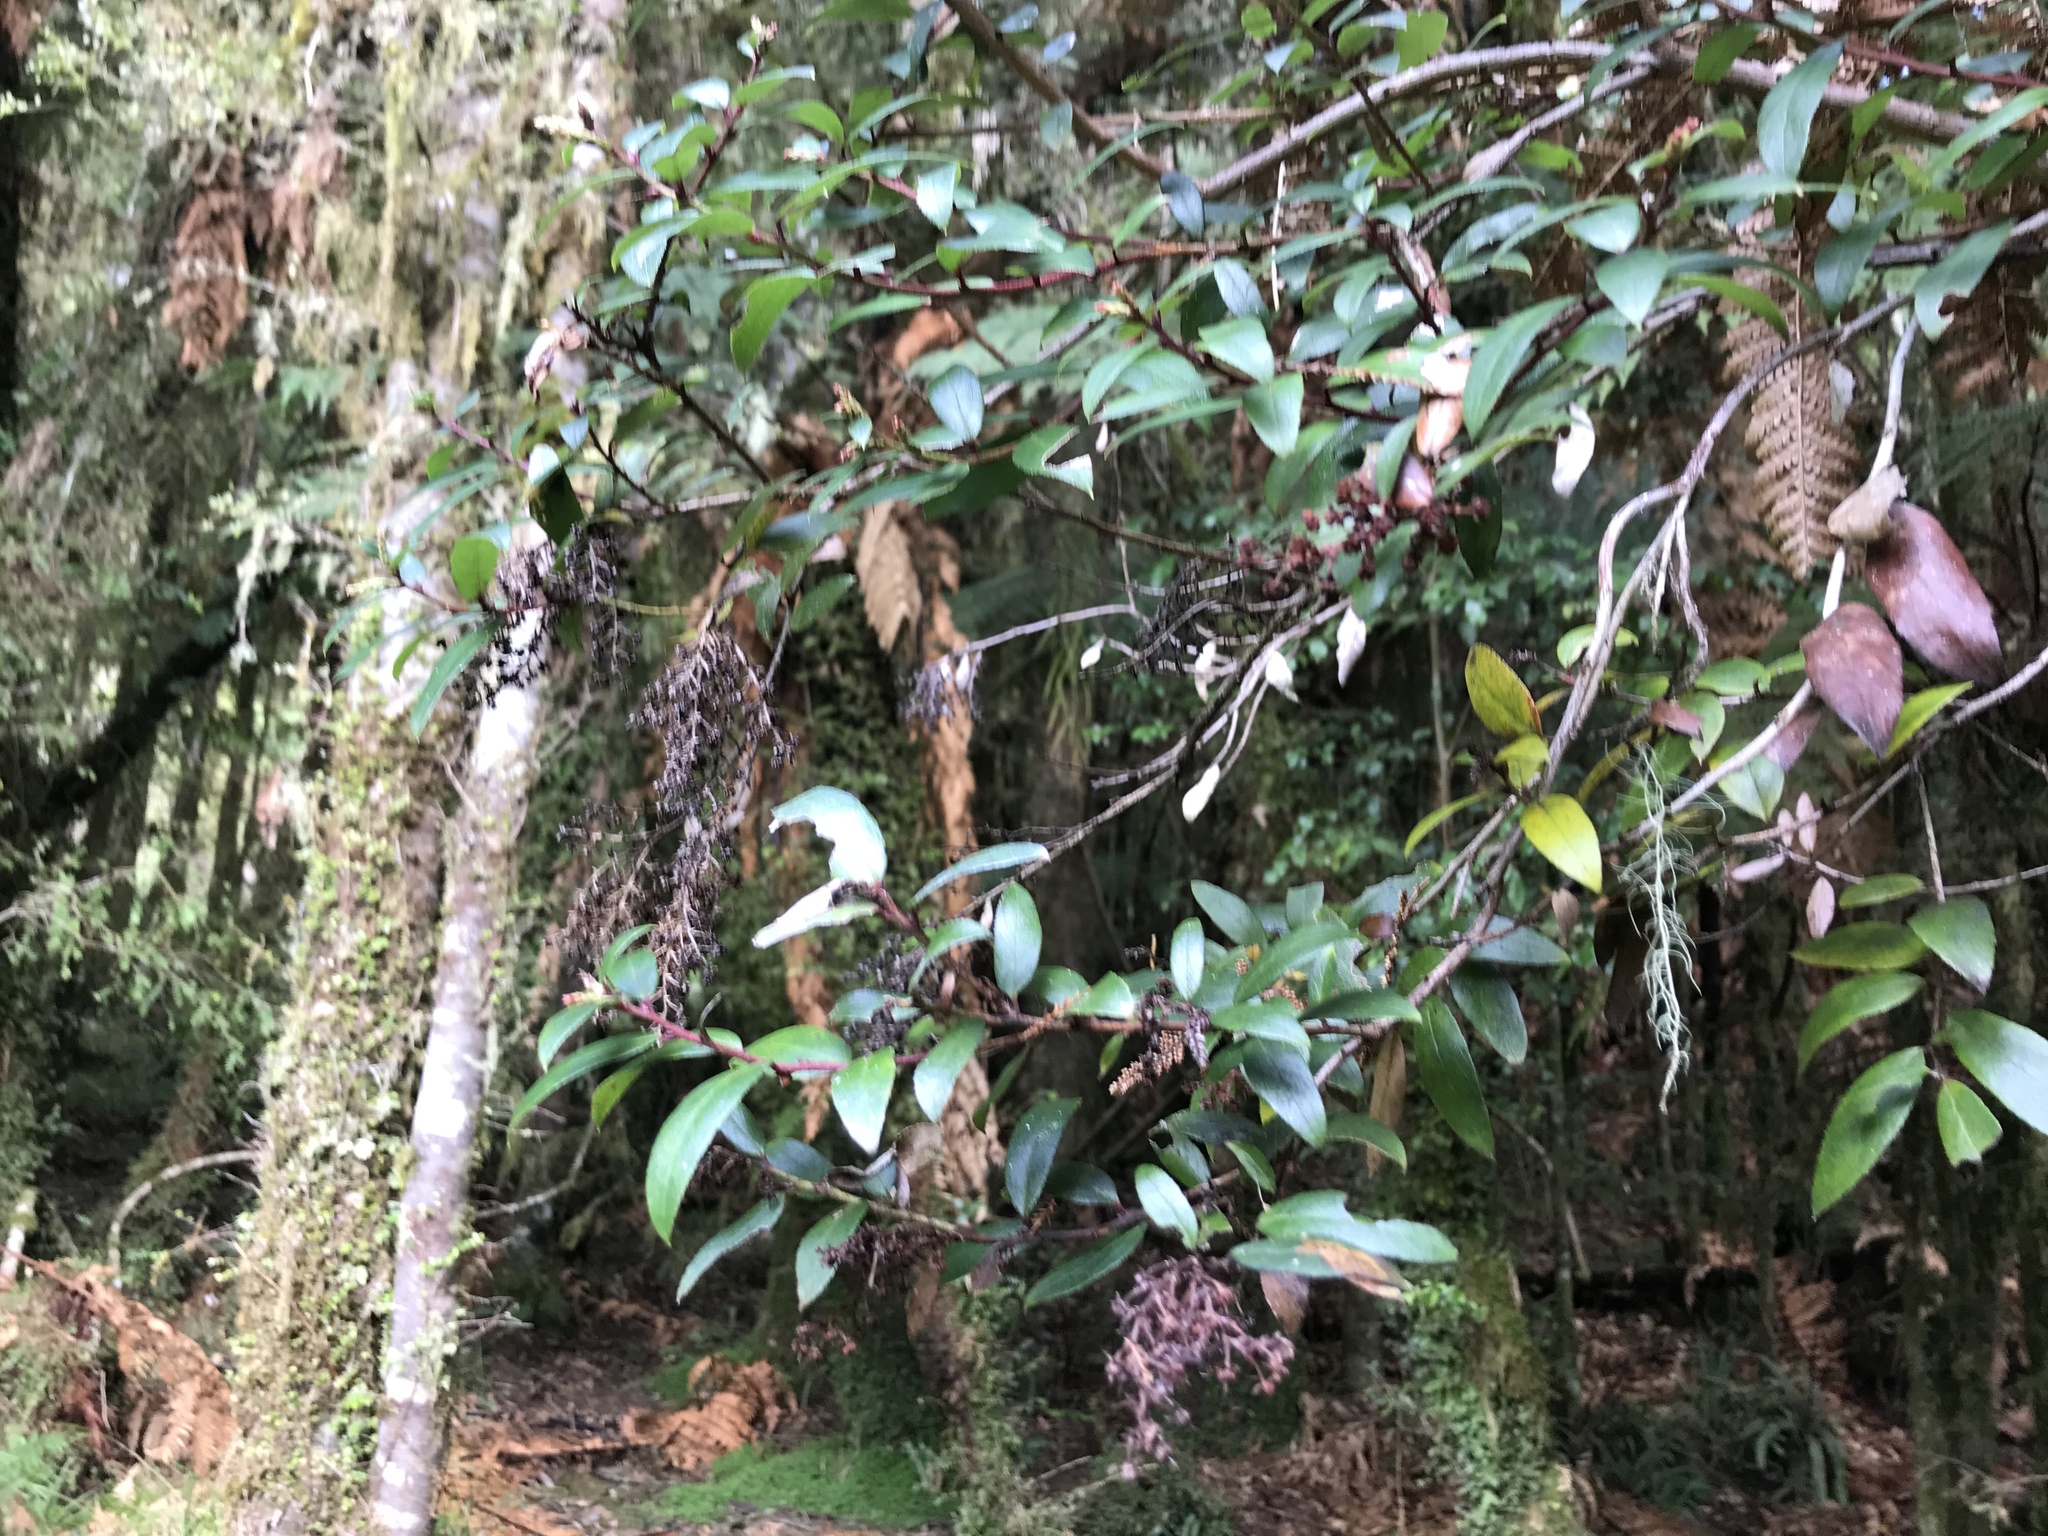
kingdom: Plantae
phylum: Tracheophyta
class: Magnoliopsida
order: Ericales
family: Ericaceae
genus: Gaultheria
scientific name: Gaultheria paniculata
